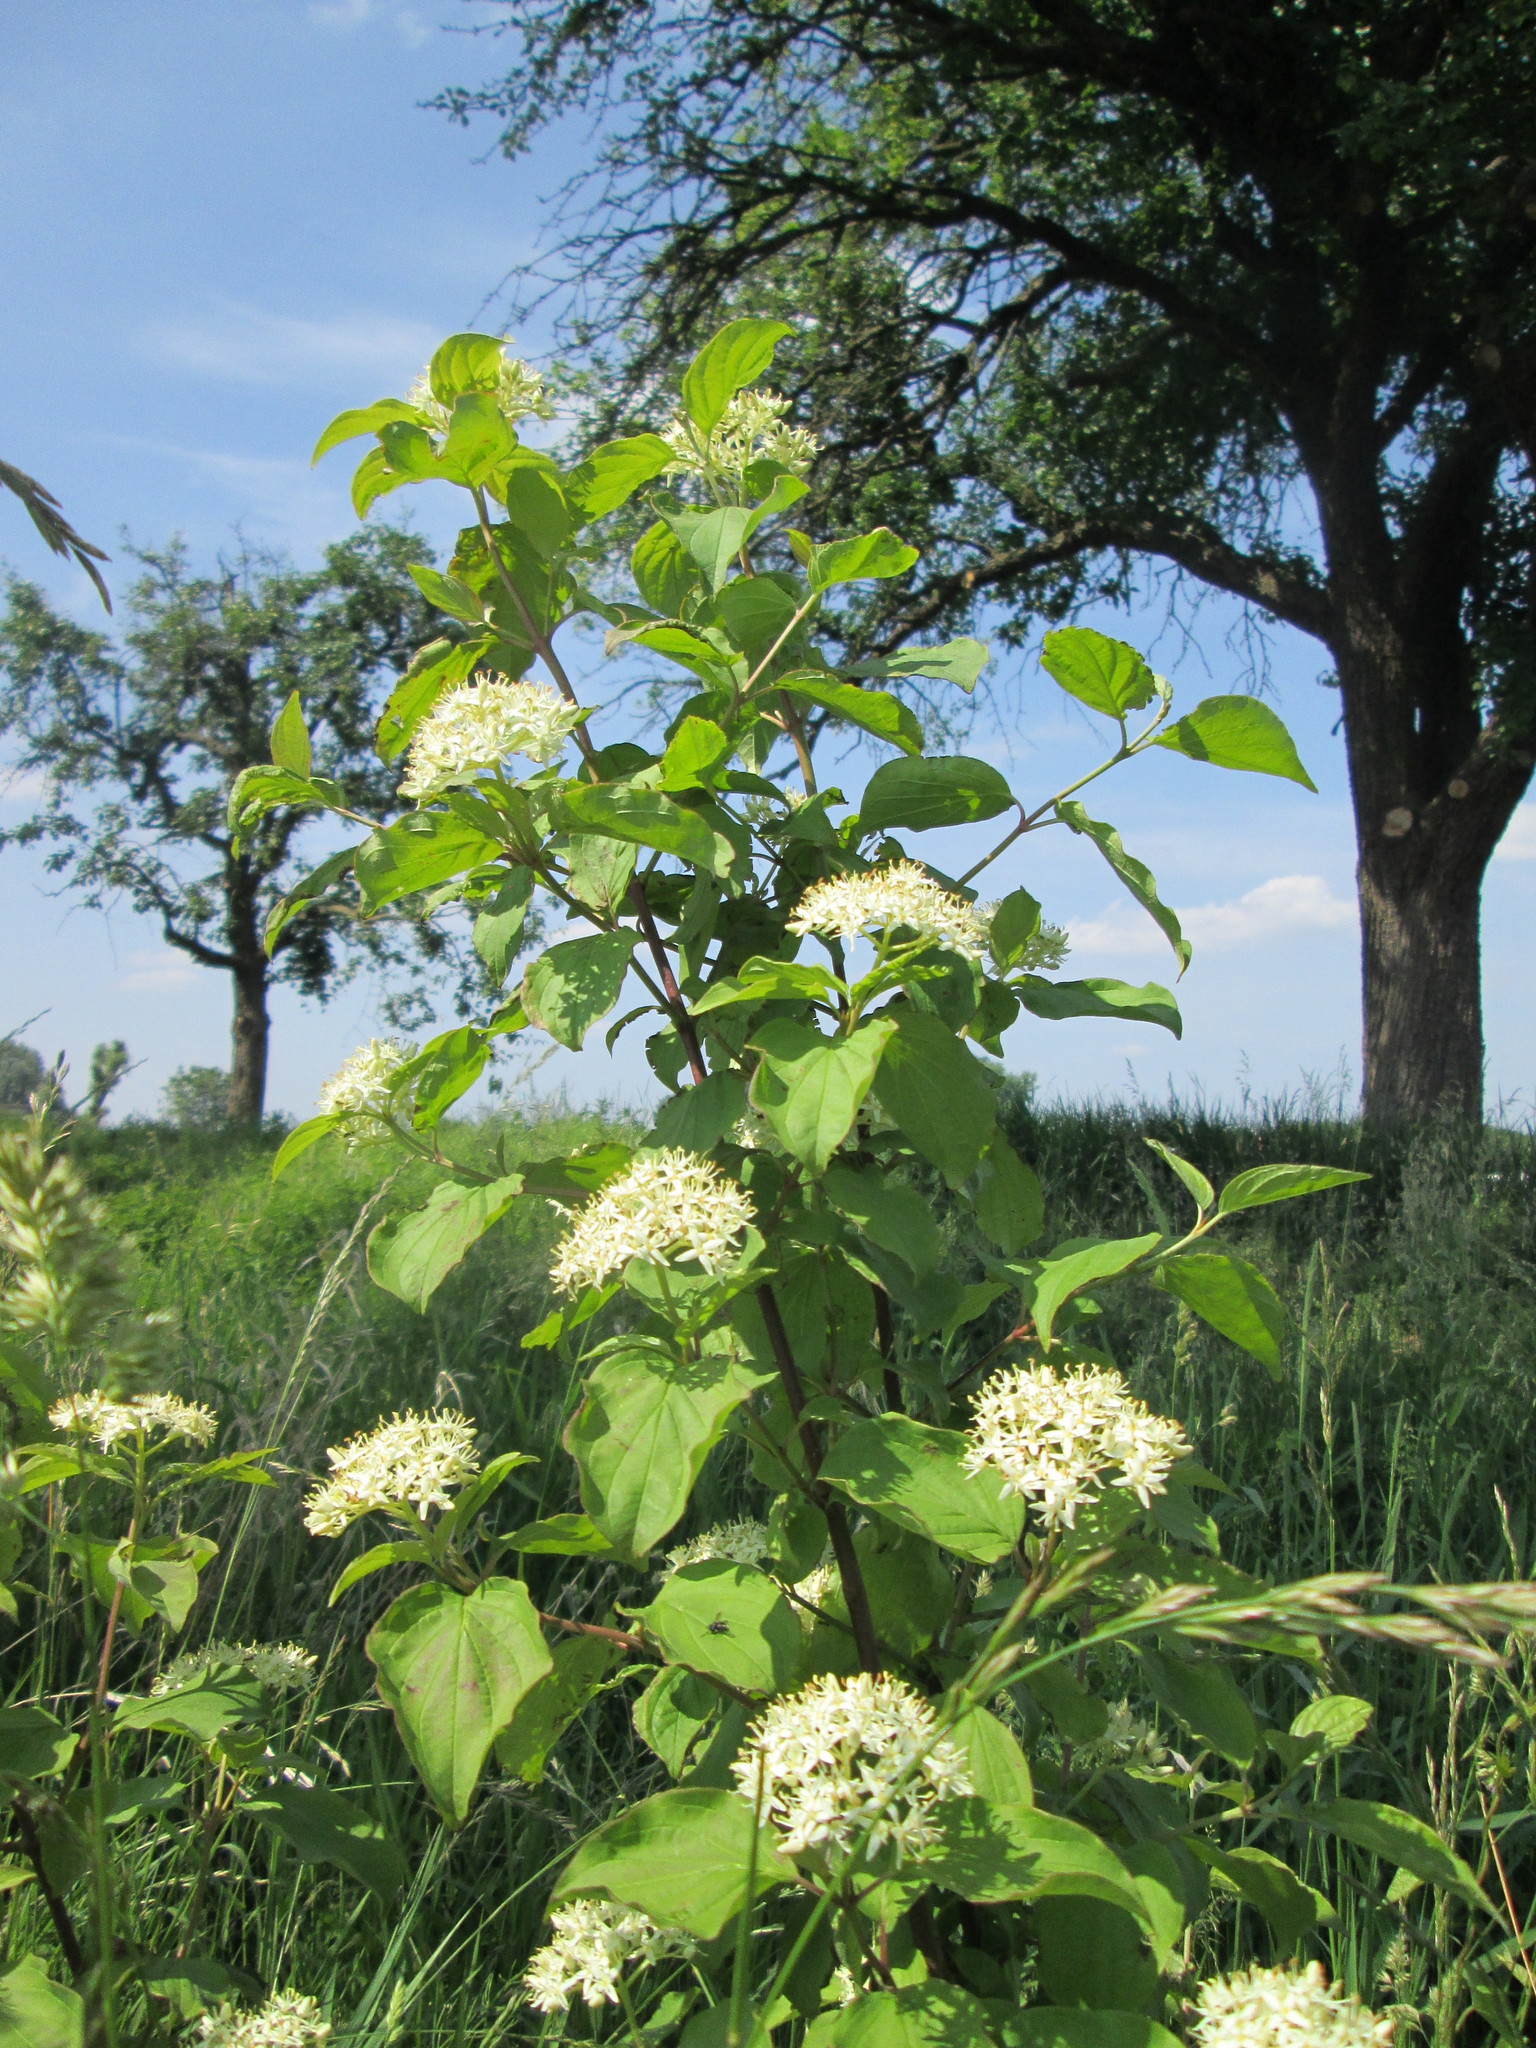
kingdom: Plantae
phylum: Tracheophyta
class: Magnoliopsida
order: Cornales
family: Cornaceae
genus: Cornus
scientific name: Cornus sanguinea
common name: Dogwood
